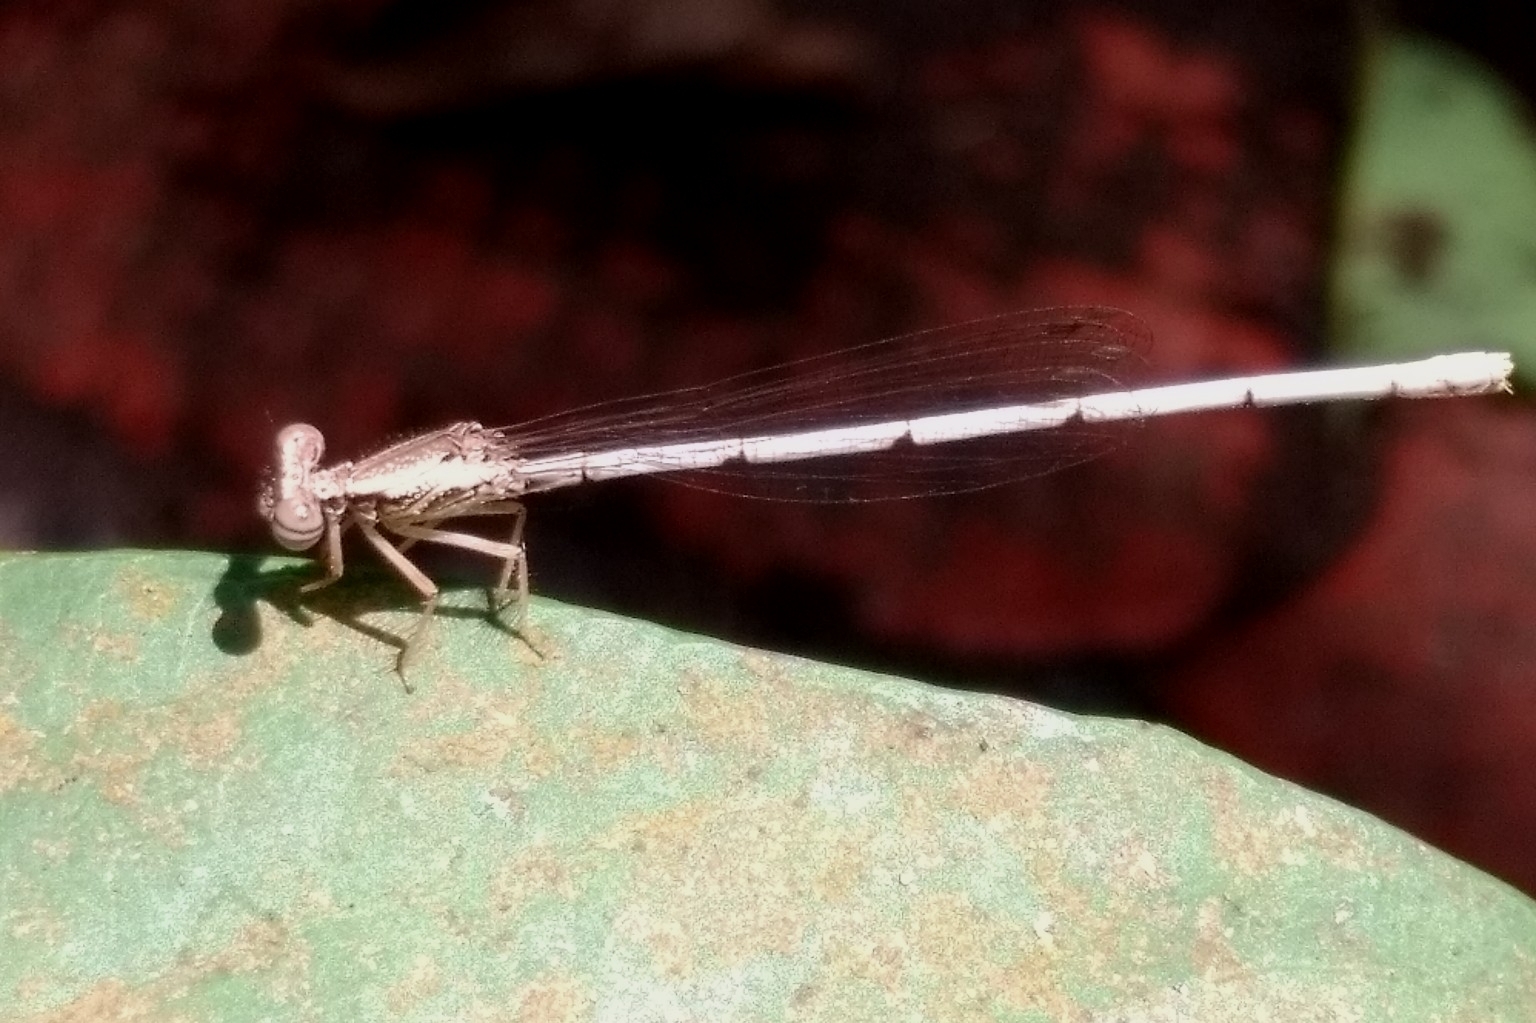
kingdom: Animalia
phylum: Arthropoda
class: Insecta
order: Odonata
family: Platycnemididae
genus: Copera
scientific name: Copera marginipes
